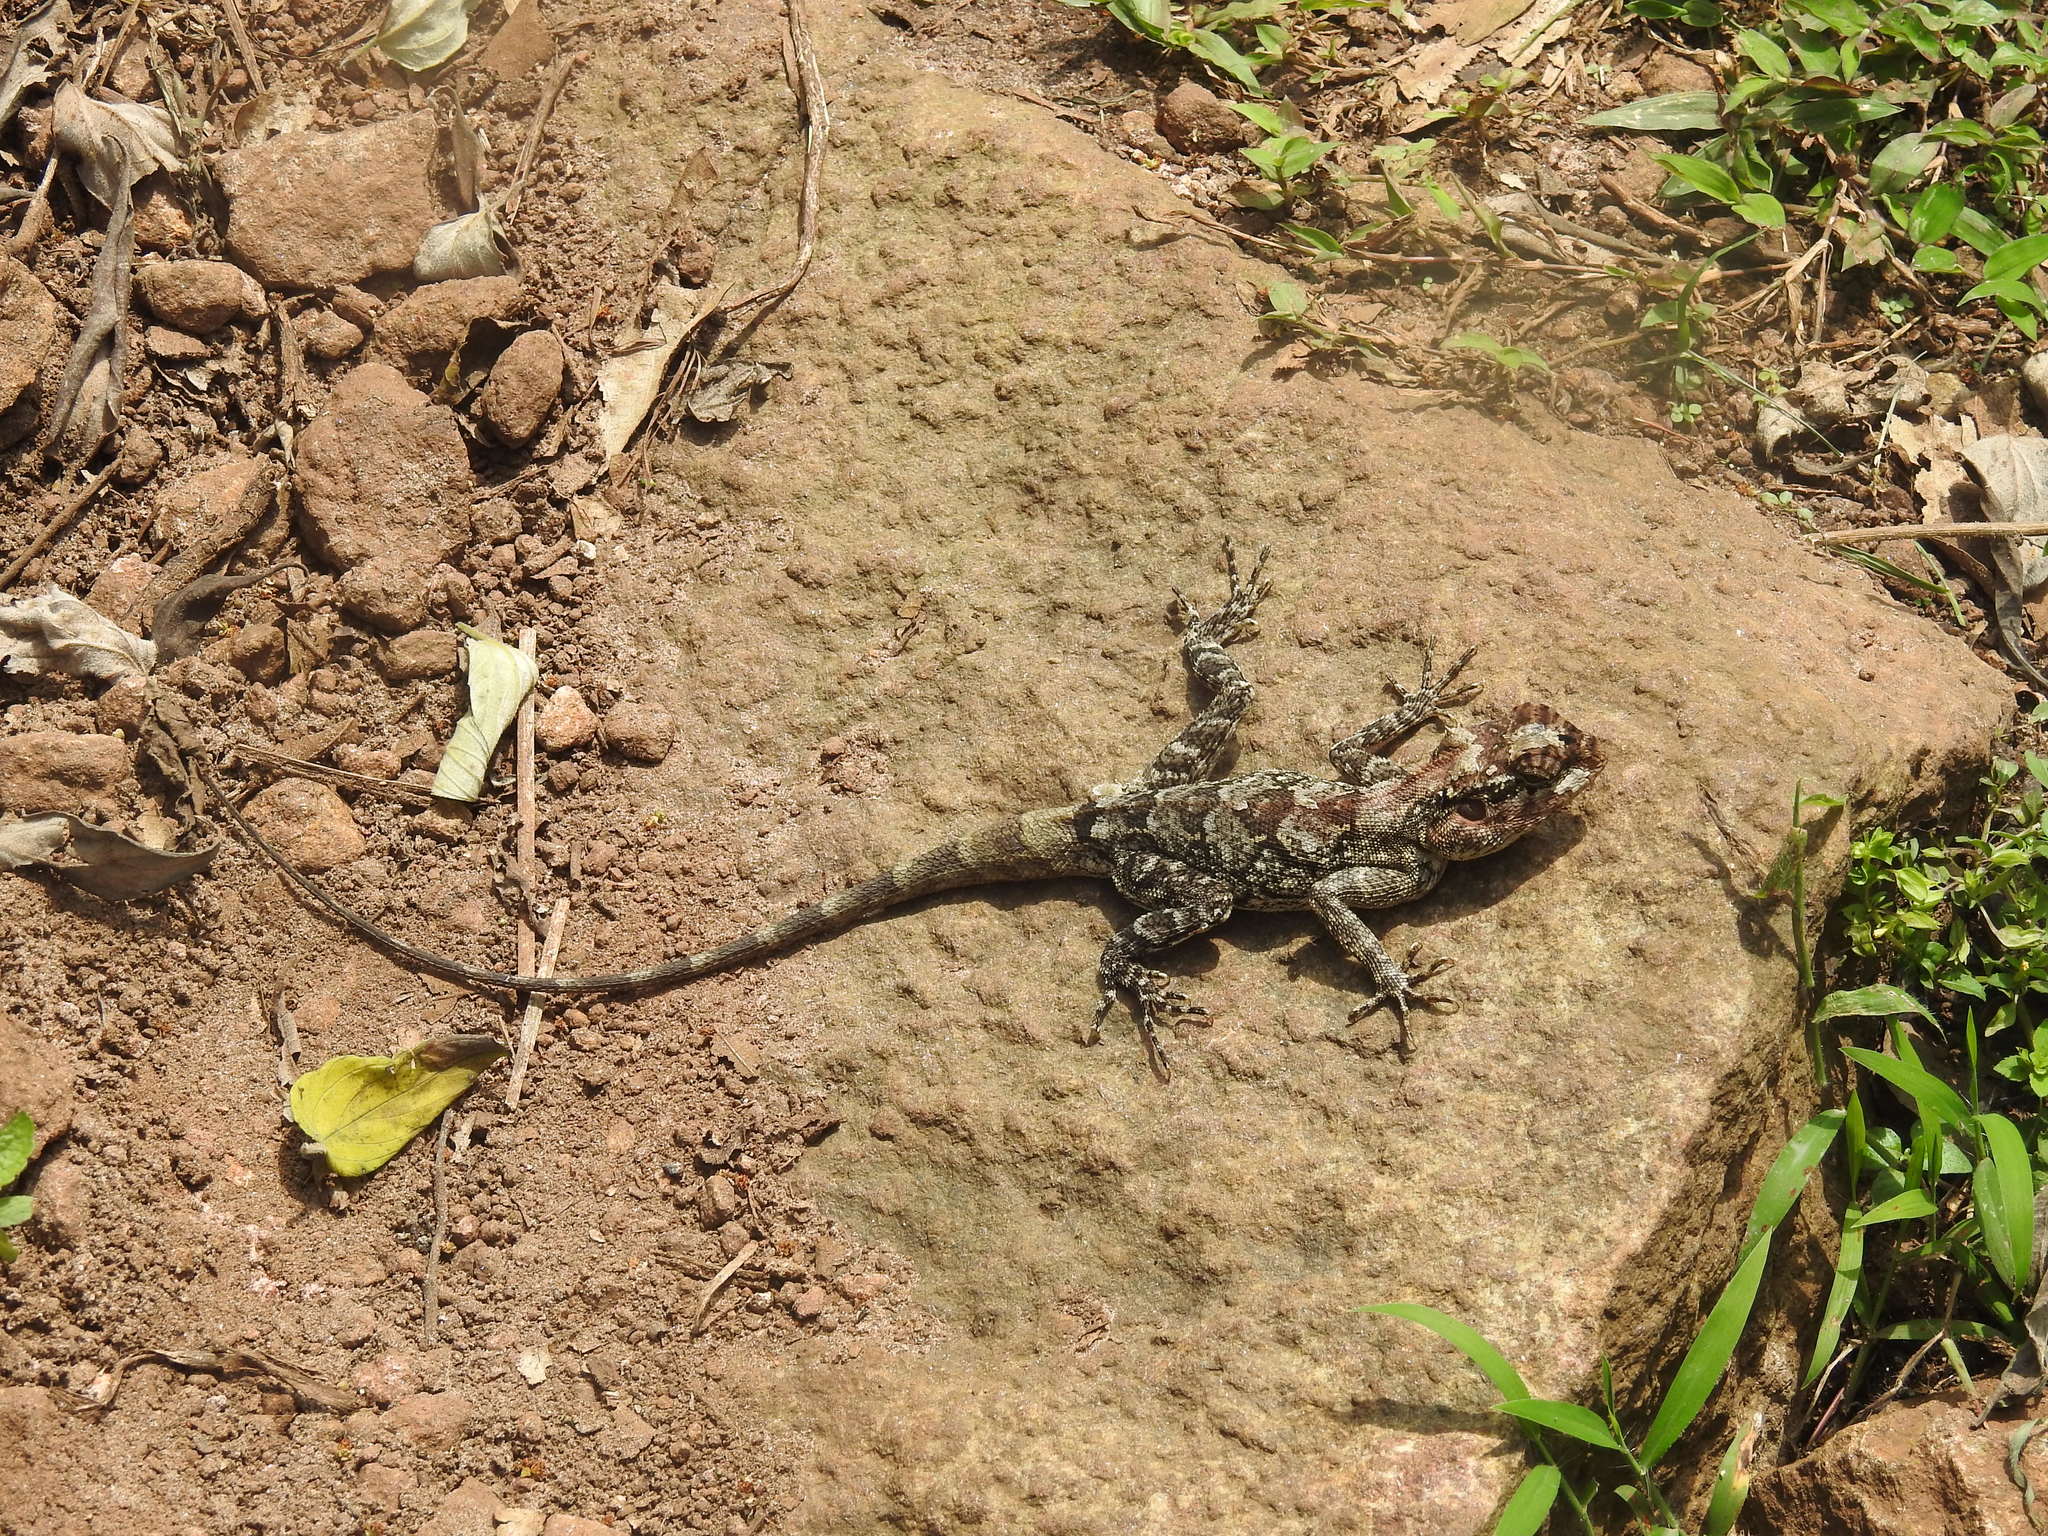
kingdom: Animalia
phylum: Chordata
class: Squamata
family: Agamidae
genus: Psammophilus
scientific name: Psammophilus dorsalis
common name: South indian rock agama
